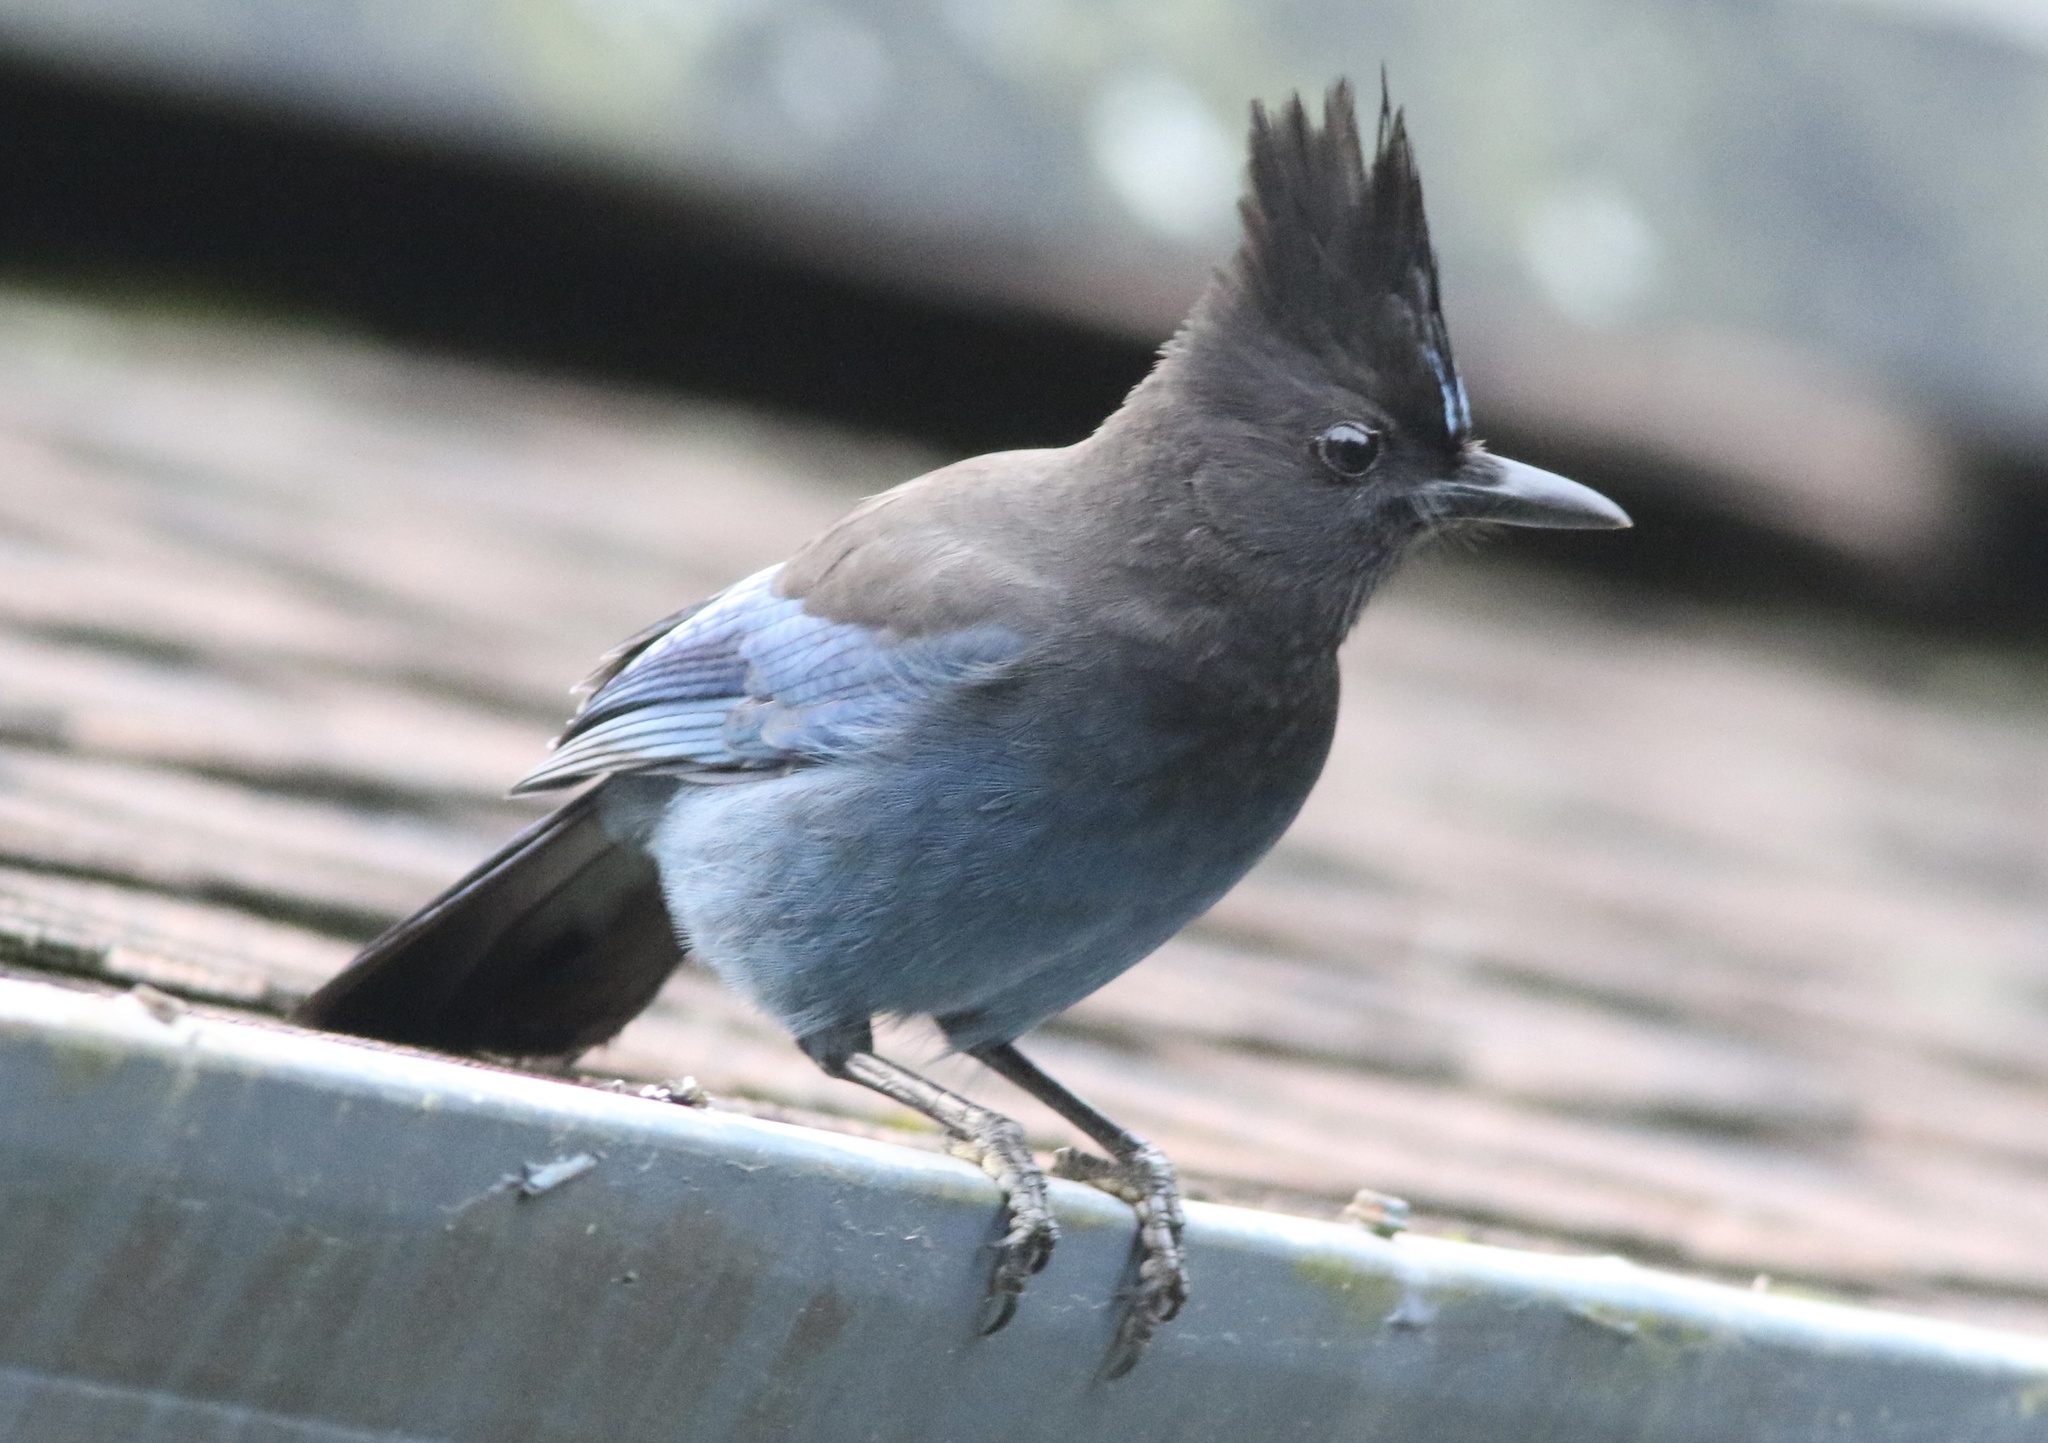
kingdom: Animalia
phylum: Chordata
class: Aves
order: Passeriformes
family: Corvidae
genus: Cyanocitta
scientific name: Cyanocitta stelleri
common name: Steller's jay
